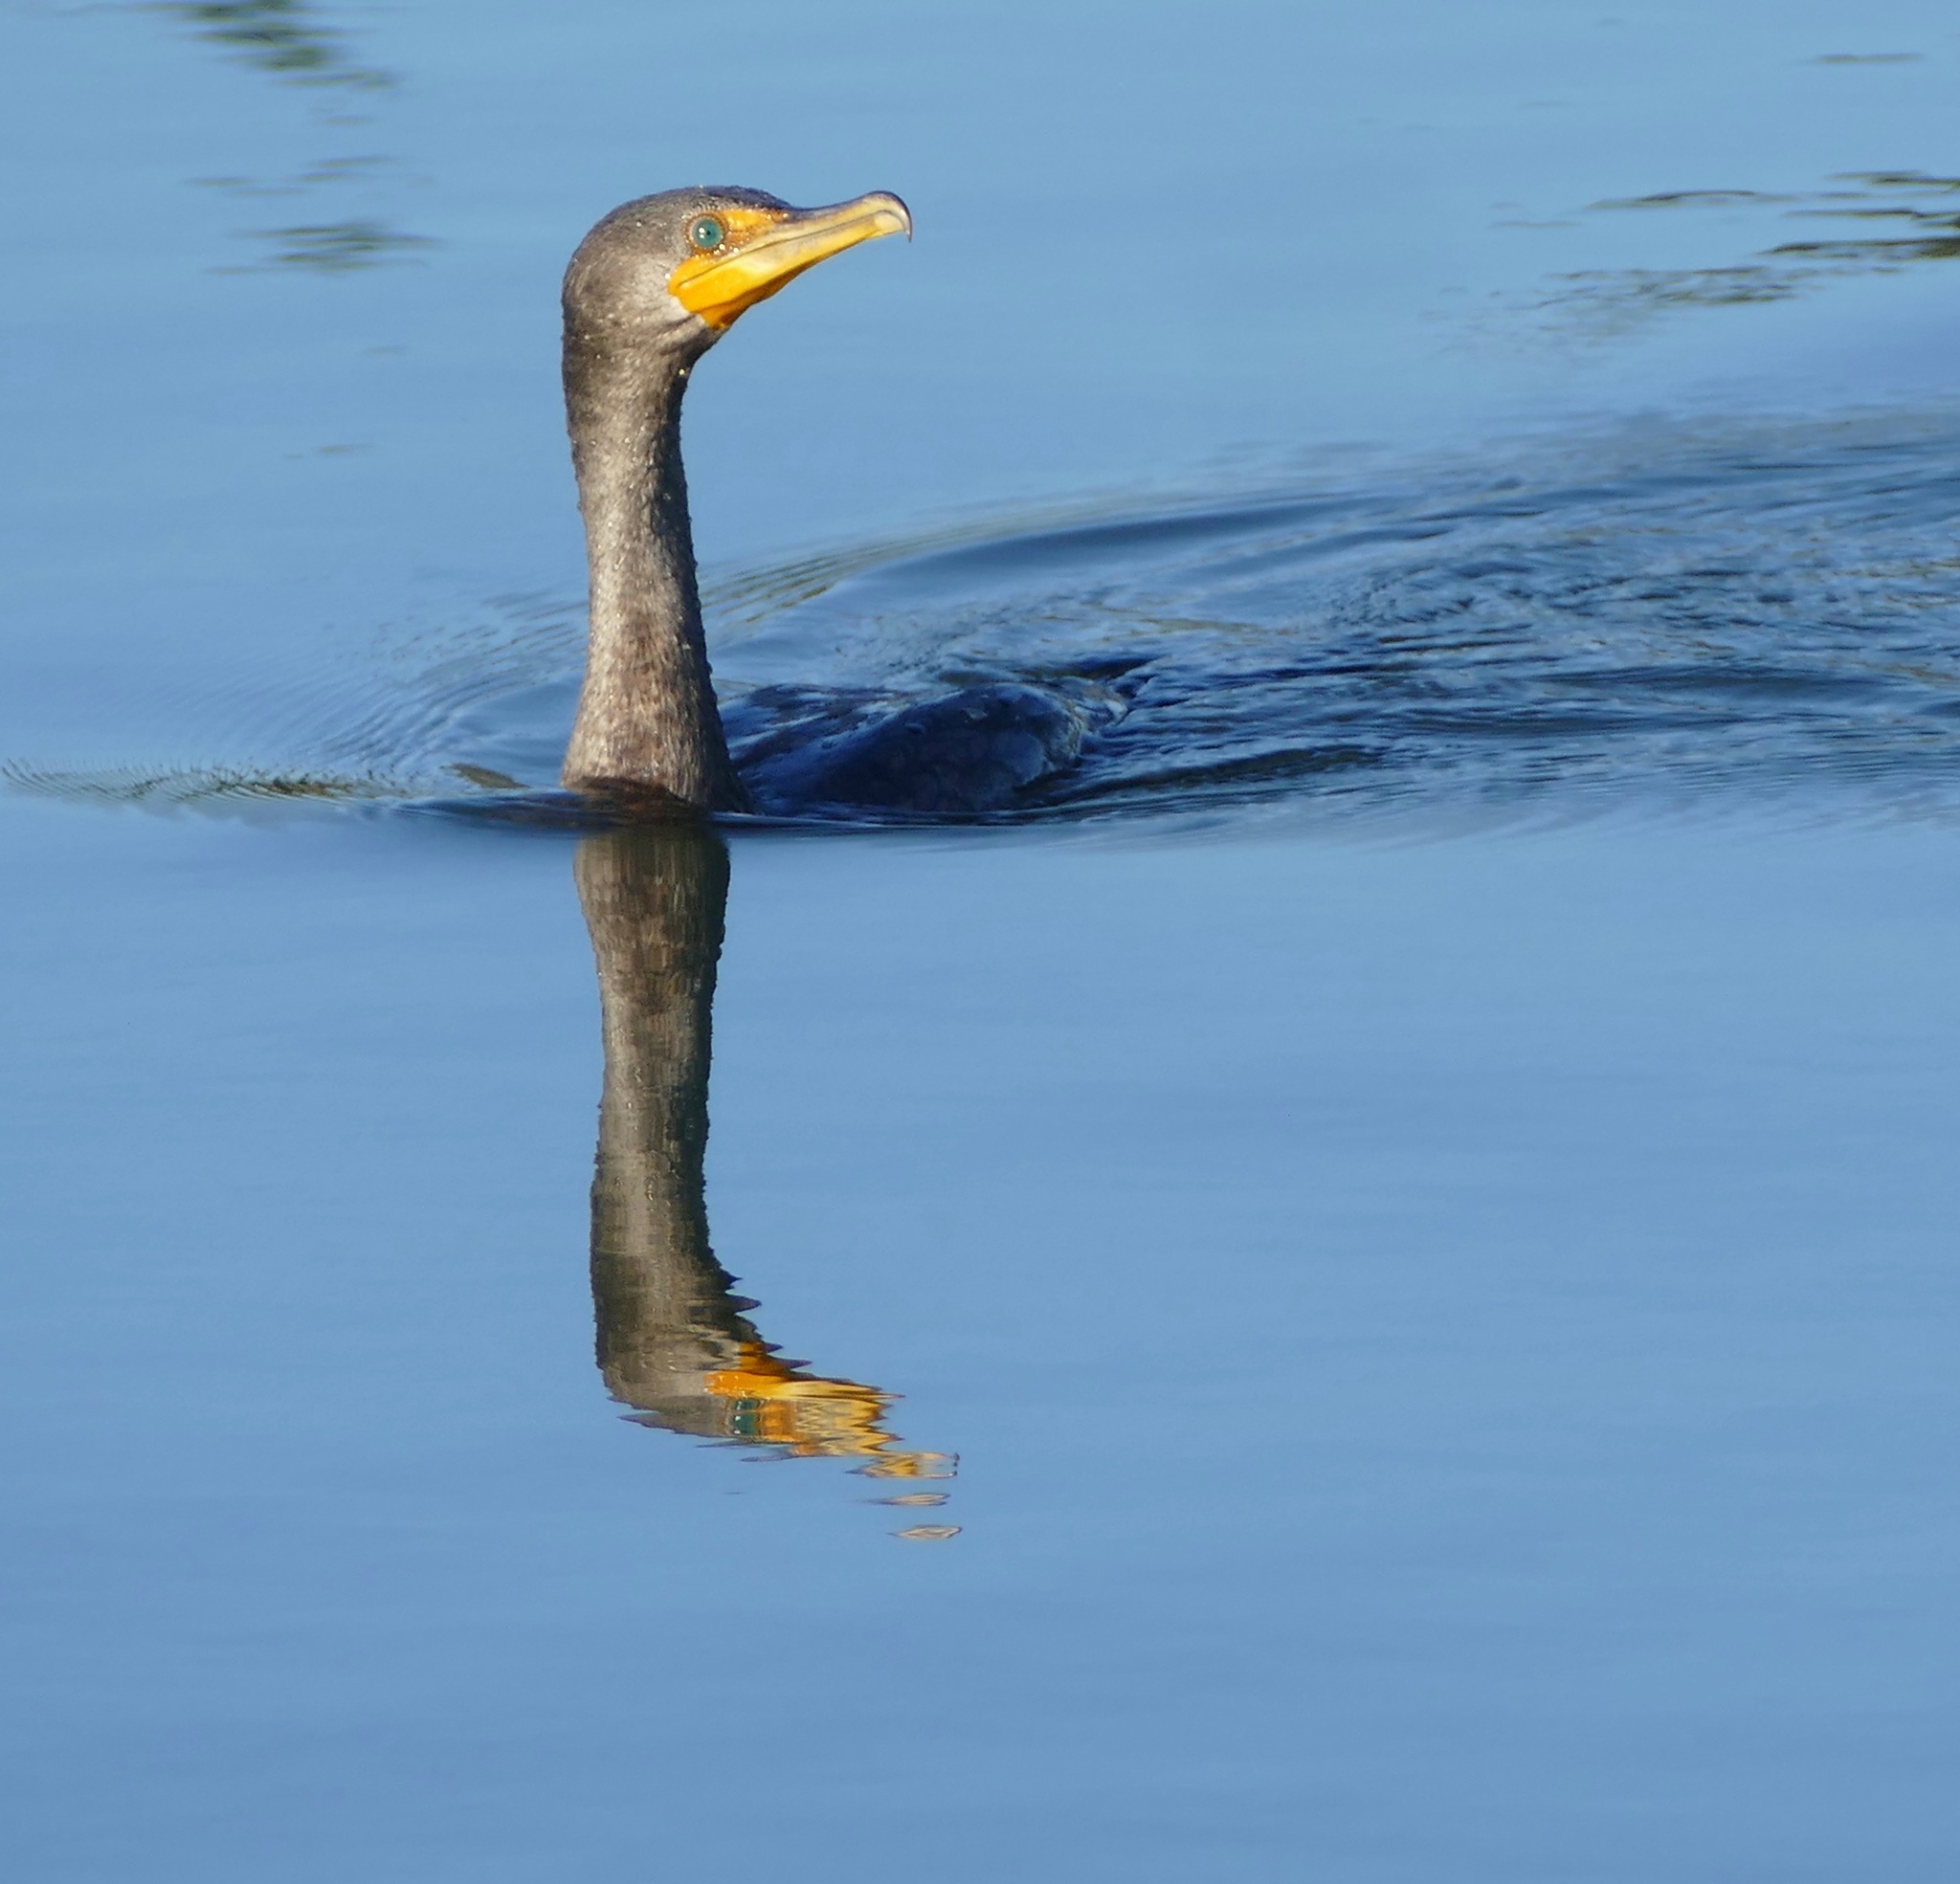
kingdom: Animalia
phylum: Chordata
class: Aves
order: Suliformes
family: Phalacrocoracidae
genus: Phalacrocorax
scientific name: Phalacrocorax auritus
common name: Double-crested cormorant
